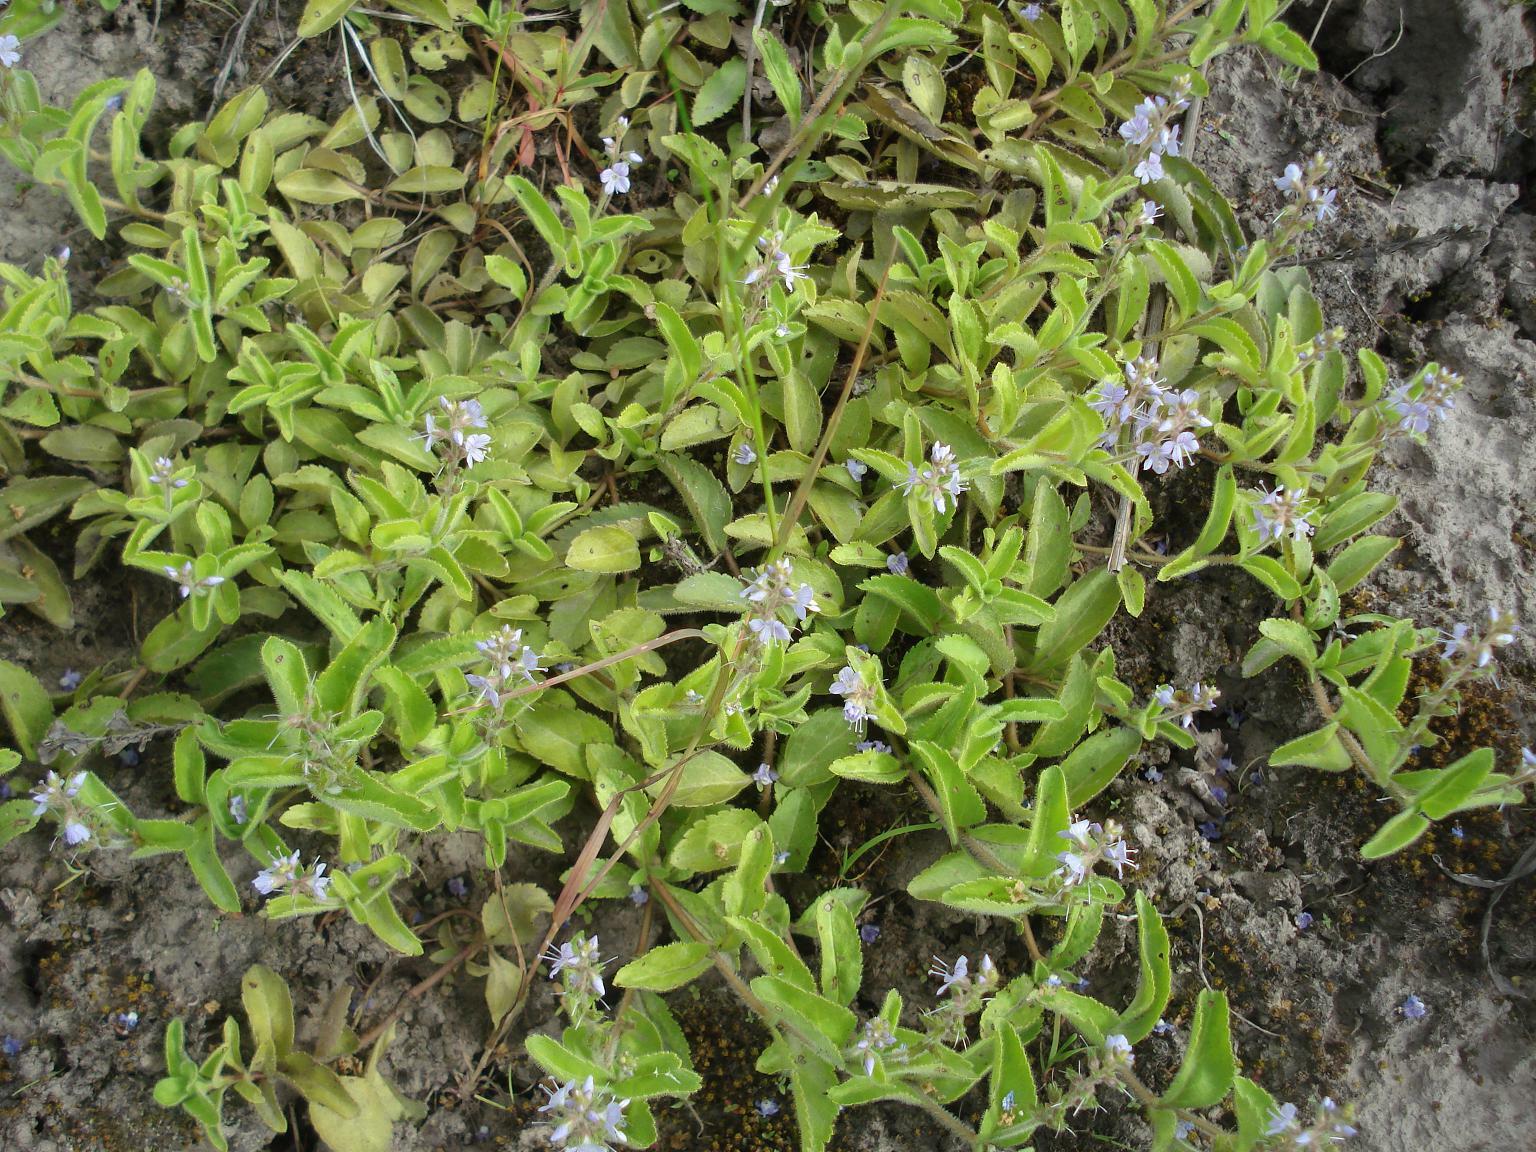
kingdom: Plantae
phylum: Tracheophyta
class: Magnoliopsida
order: Lamiales
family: Plantaginaceae
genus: Veronica
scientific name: Veronica officinalis
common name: Common speedwell
